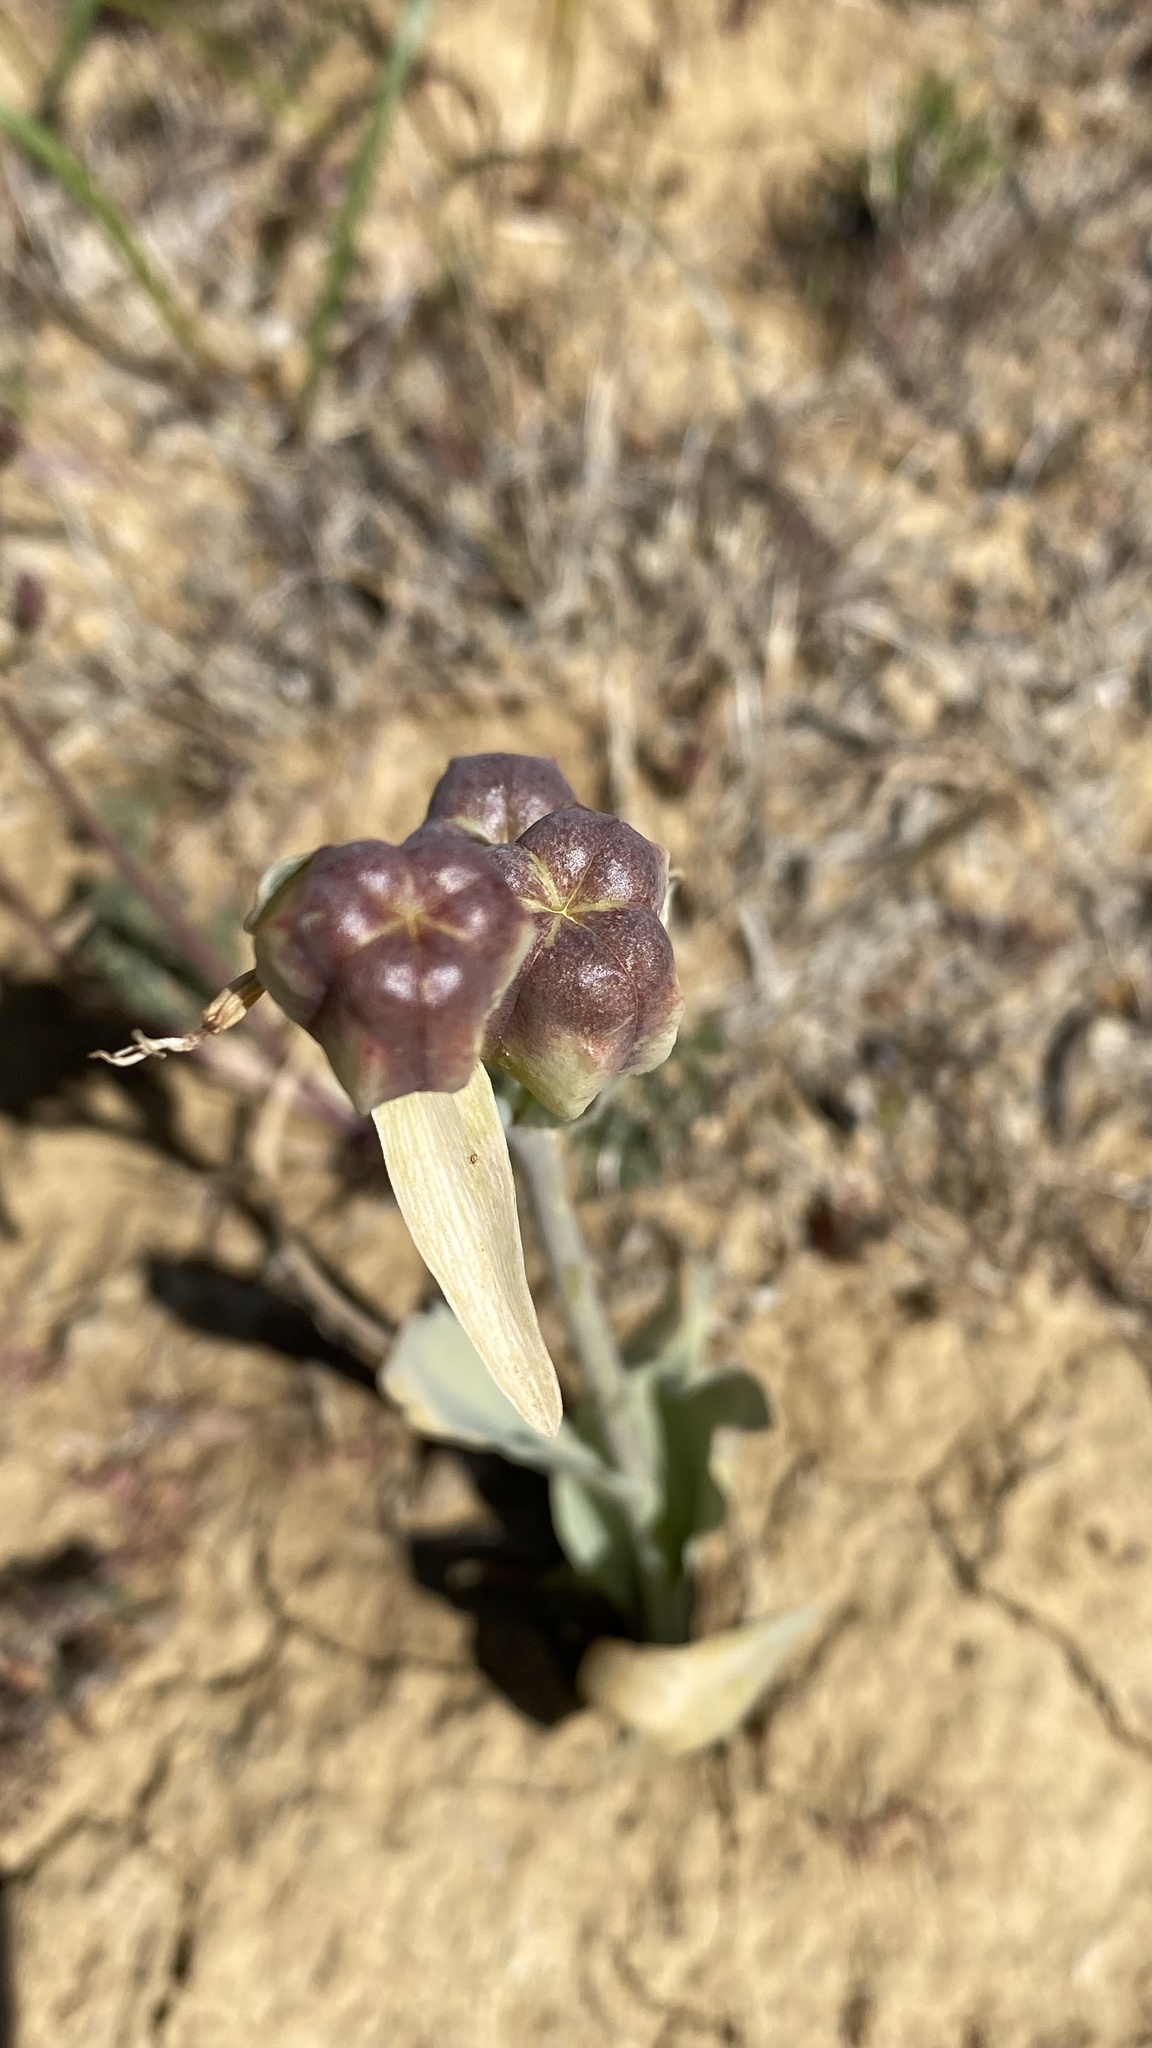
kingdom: Plantae
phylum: Tracheophyta
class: Liliopsida
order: Liliales
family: Liliaceae
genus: Fritillaria
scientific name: Fritillaria agrestis
